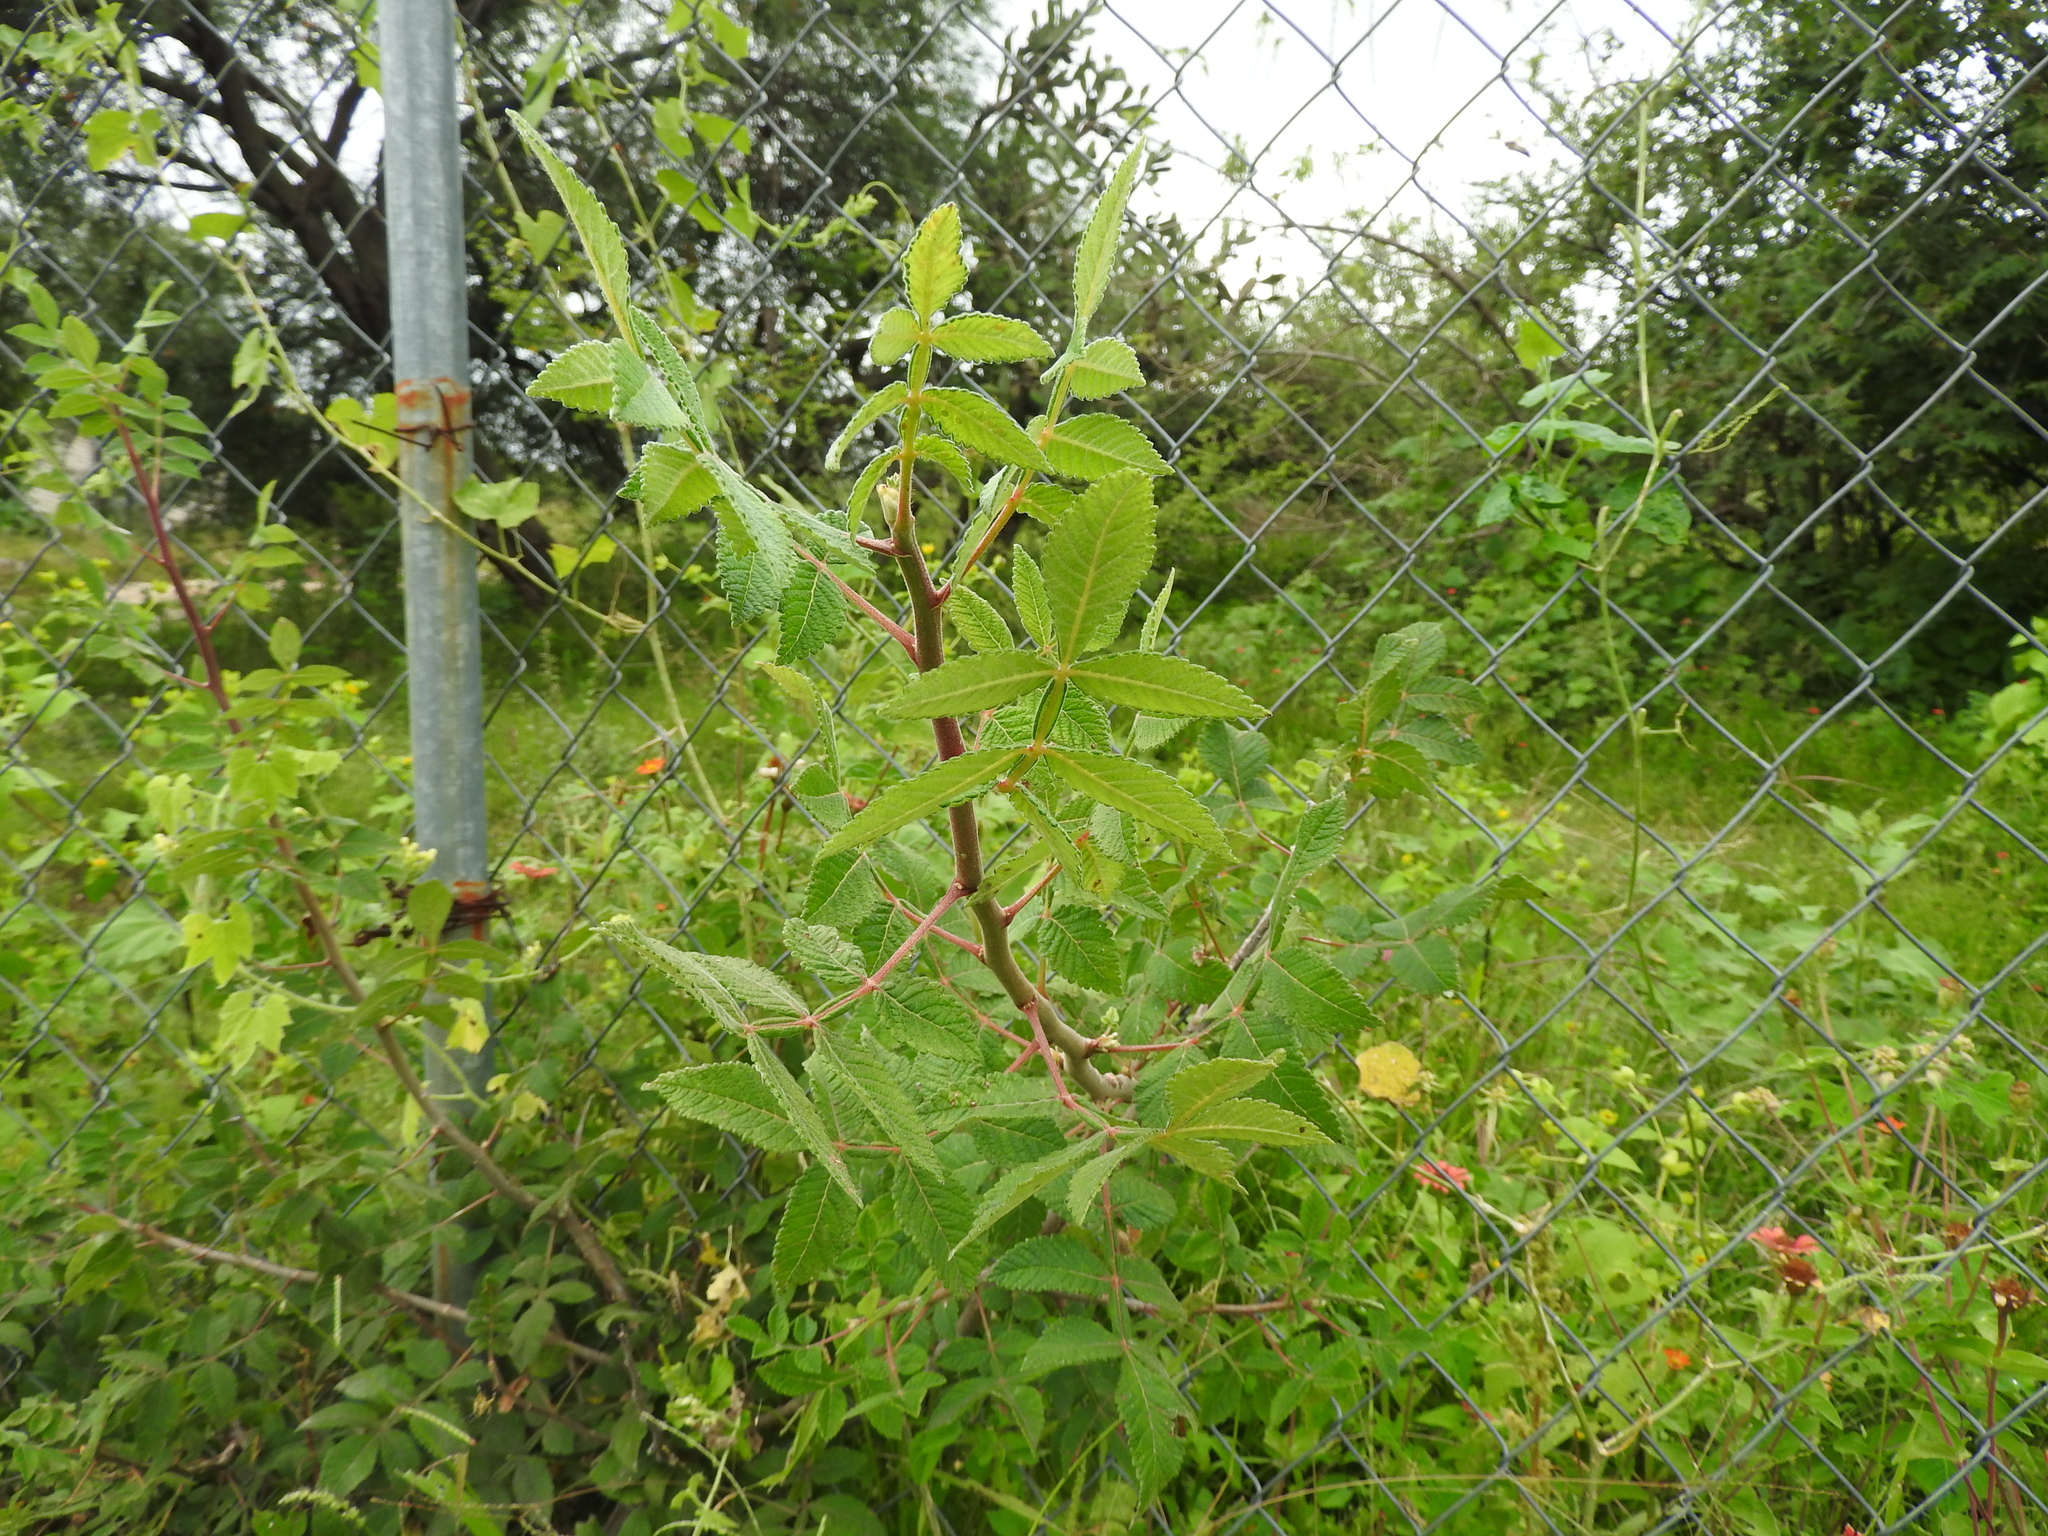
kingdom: Plantae
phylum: Tracheophyta
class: Magnoliopsida
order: Sapindales
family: Burseraceae
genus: Bursera
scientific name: Bursera cuneata
